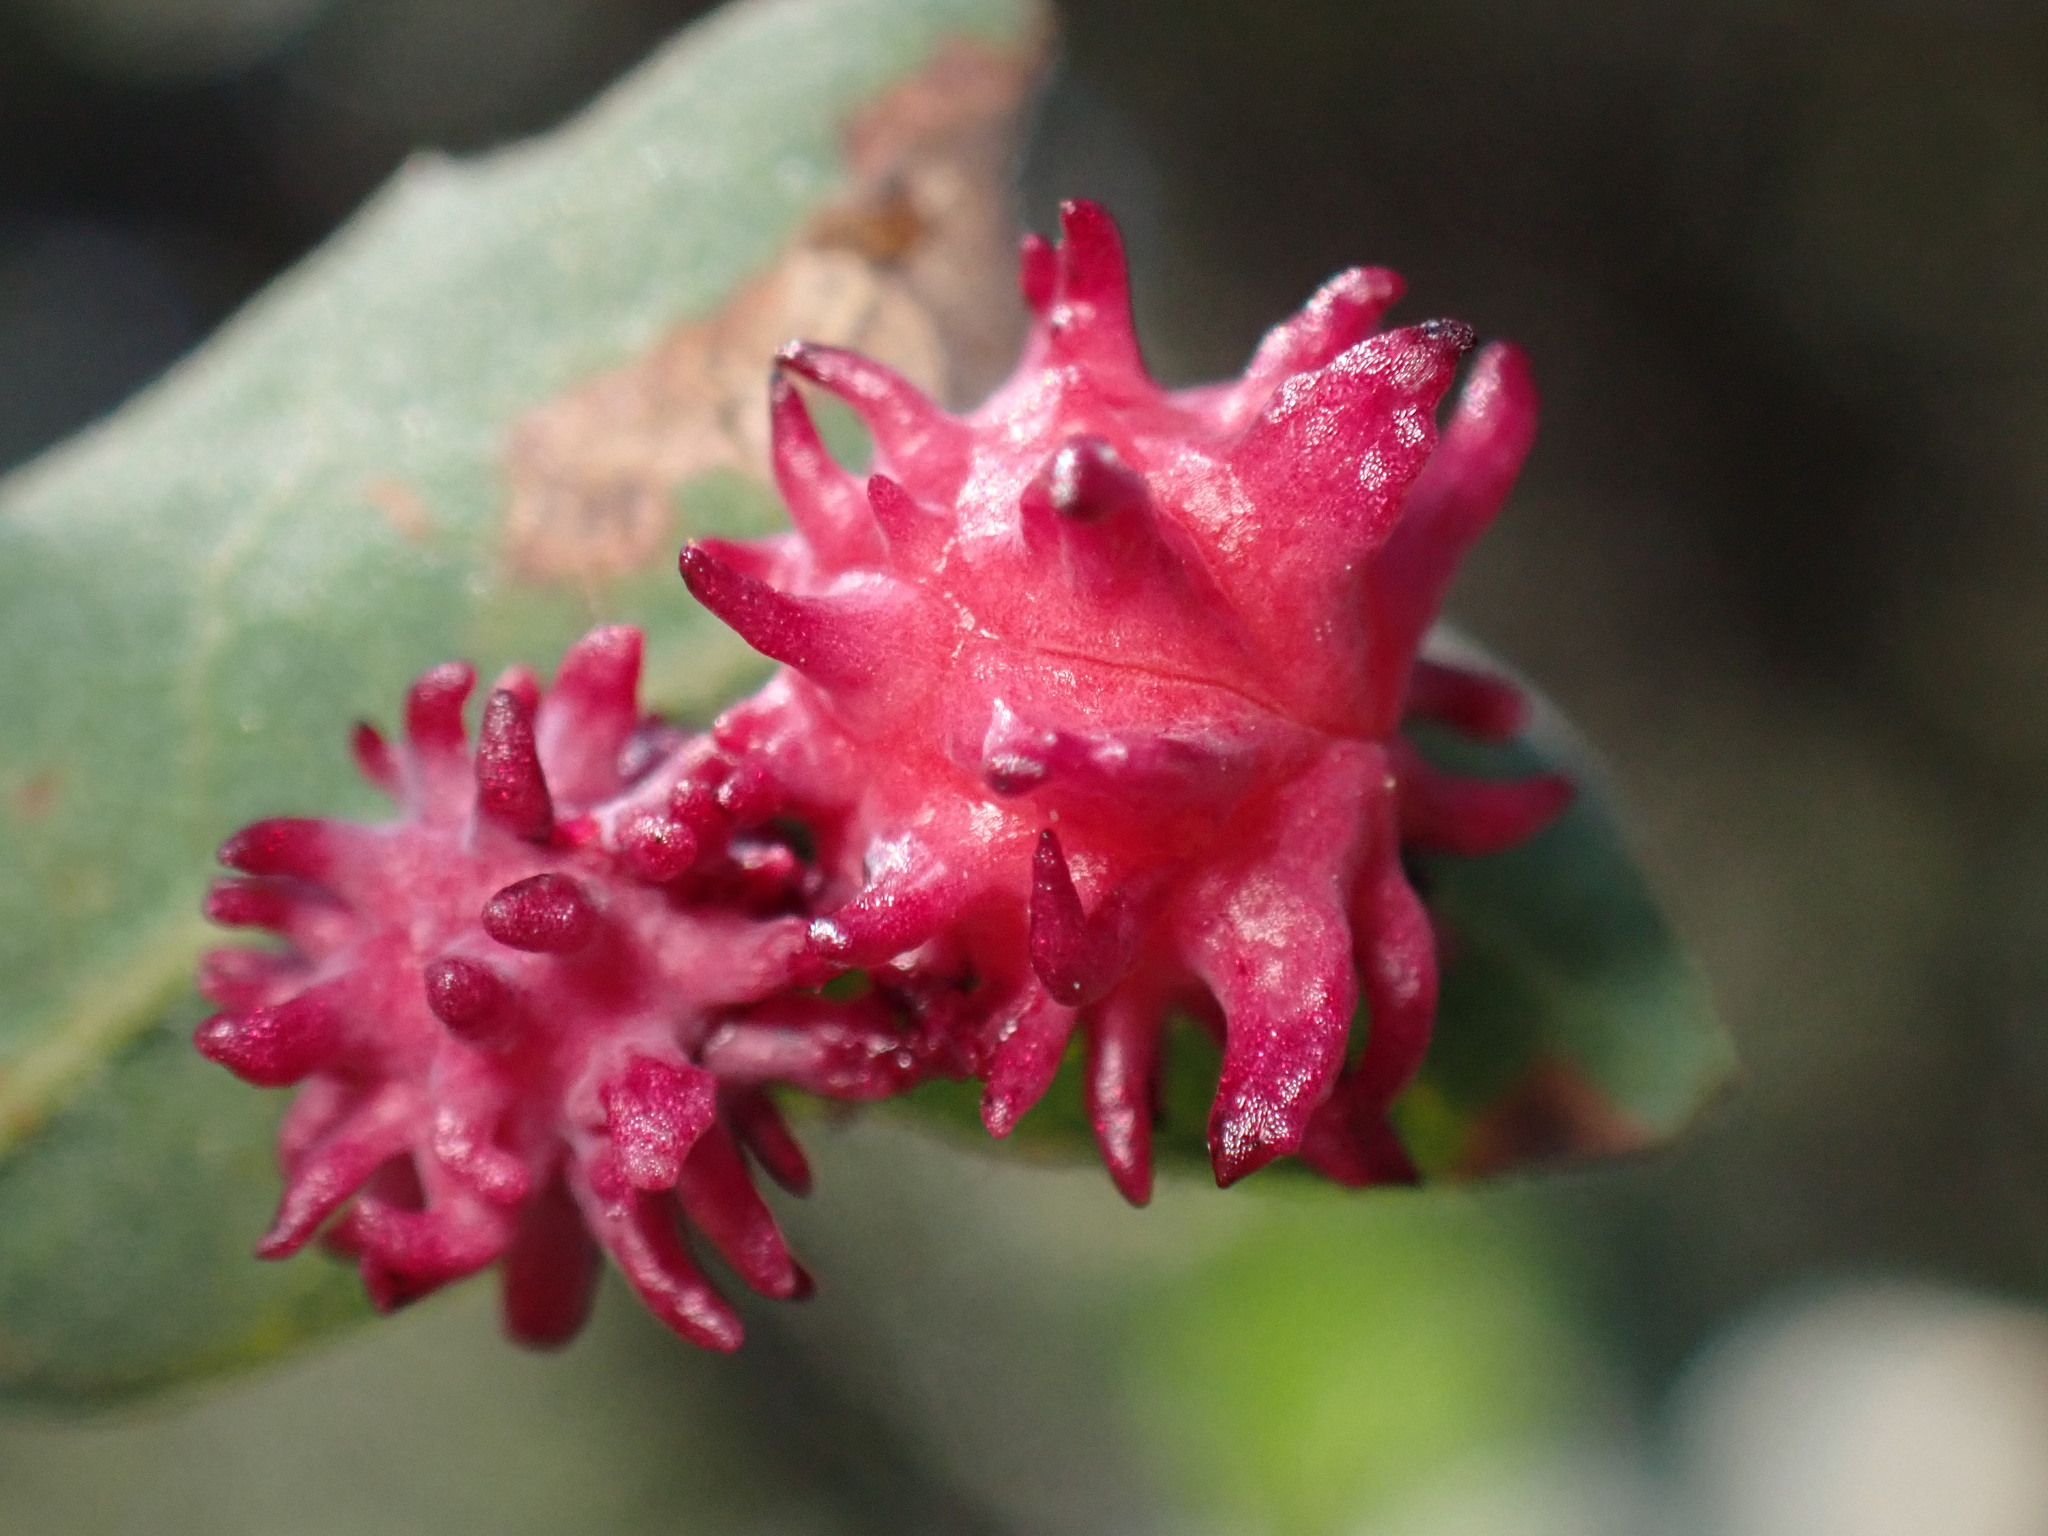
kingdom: Animalia
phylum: Arthropoda
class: Insecta
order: Hymenoptera
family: Cynipidae
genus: Cynips
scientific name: Cynips
